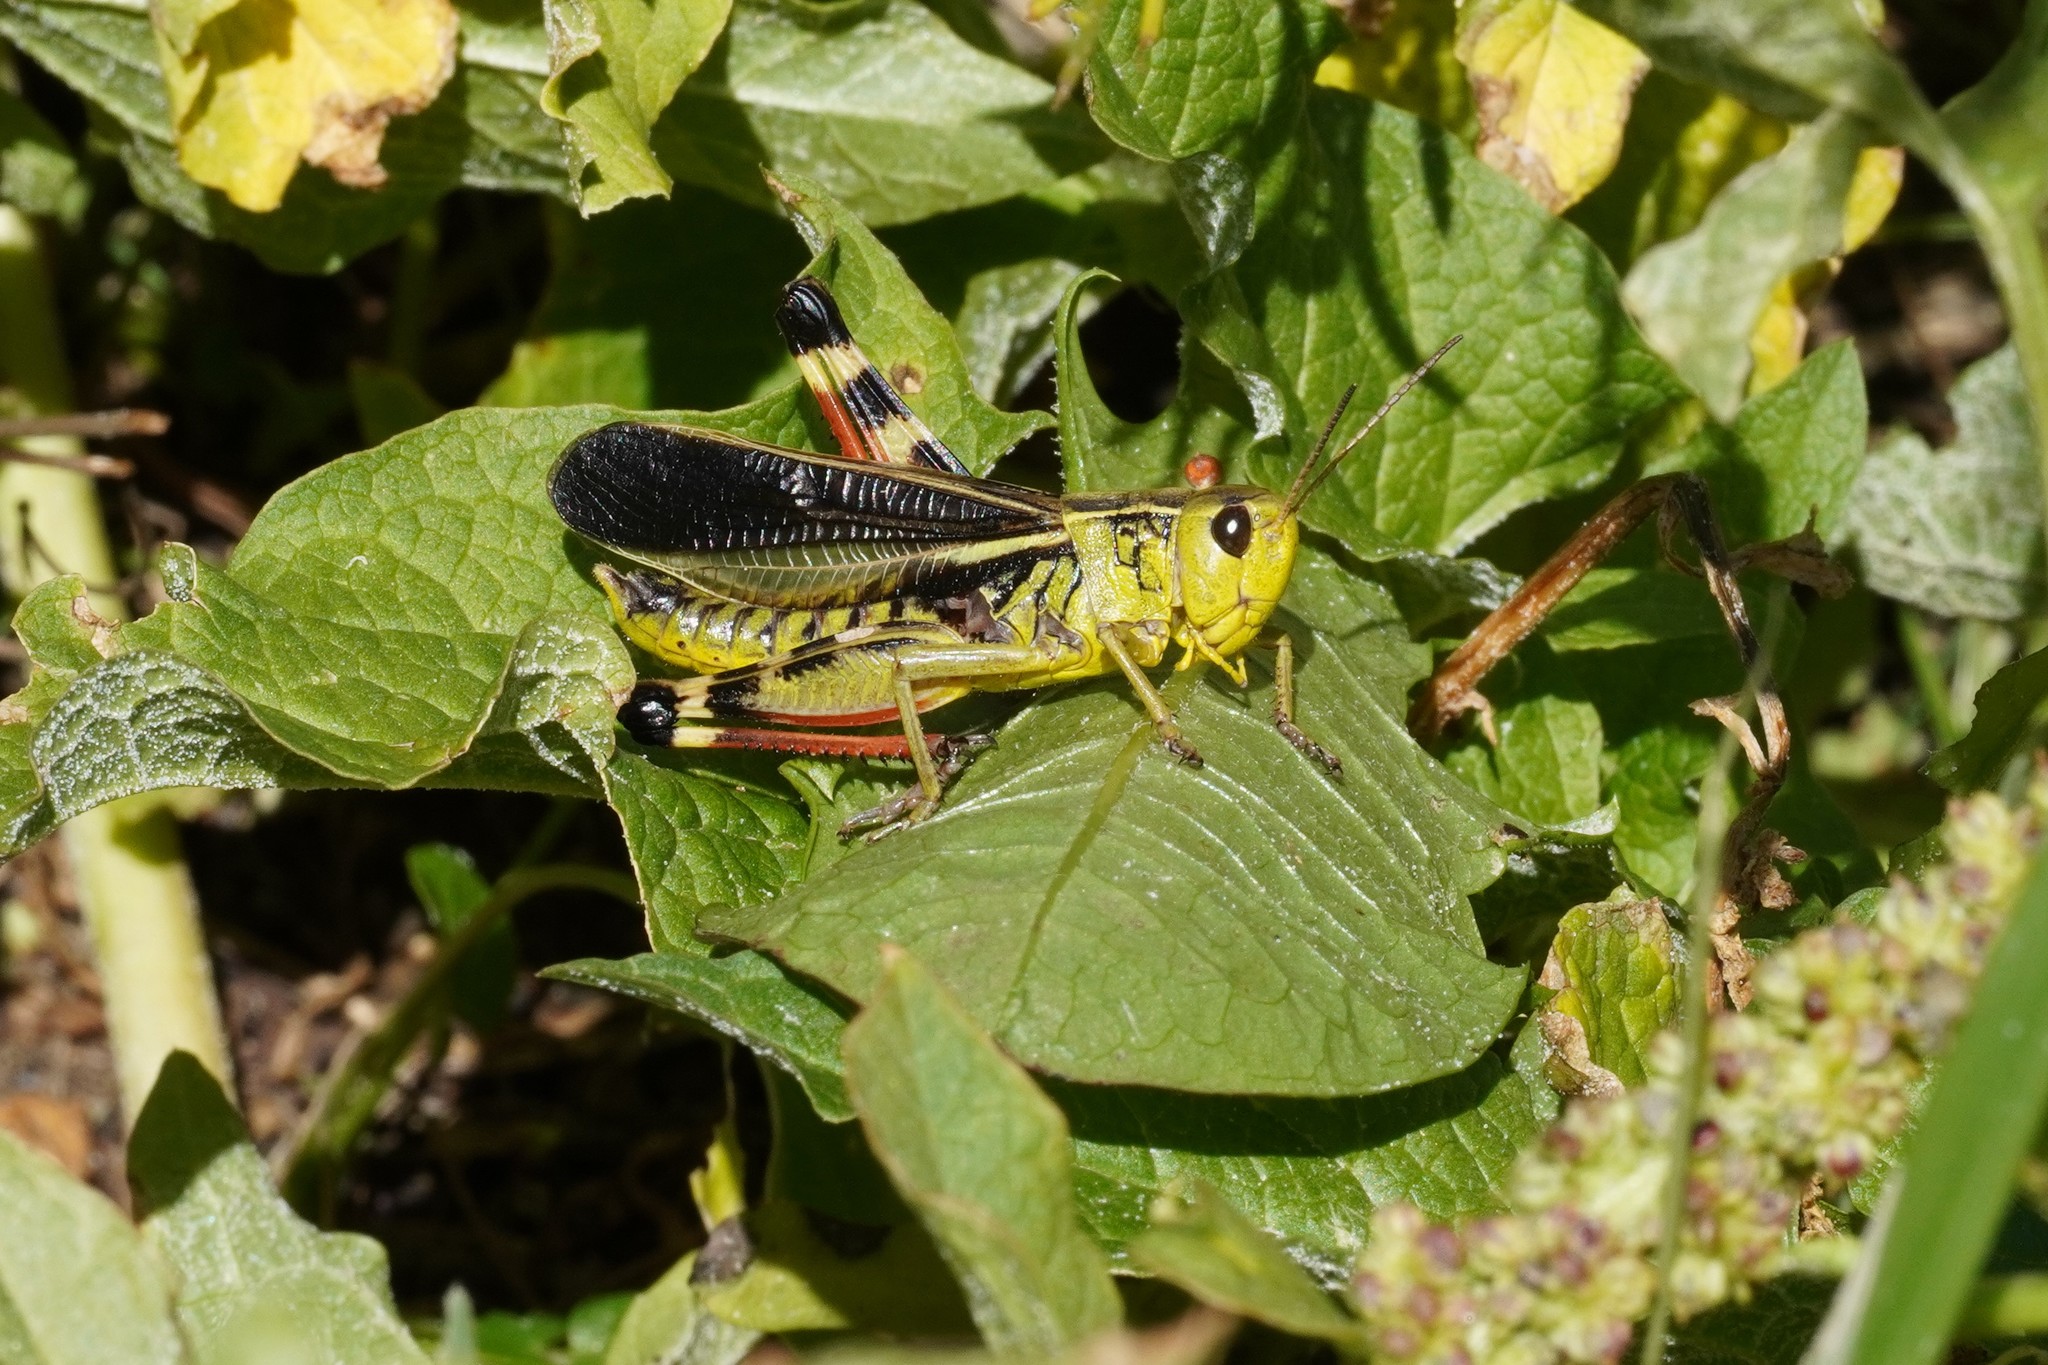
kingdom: Animalia
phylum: Arthropoda
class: Insecta
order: Orthoptera
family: Acrididae
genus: Arcyptera
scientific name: Arcyptera fusca
